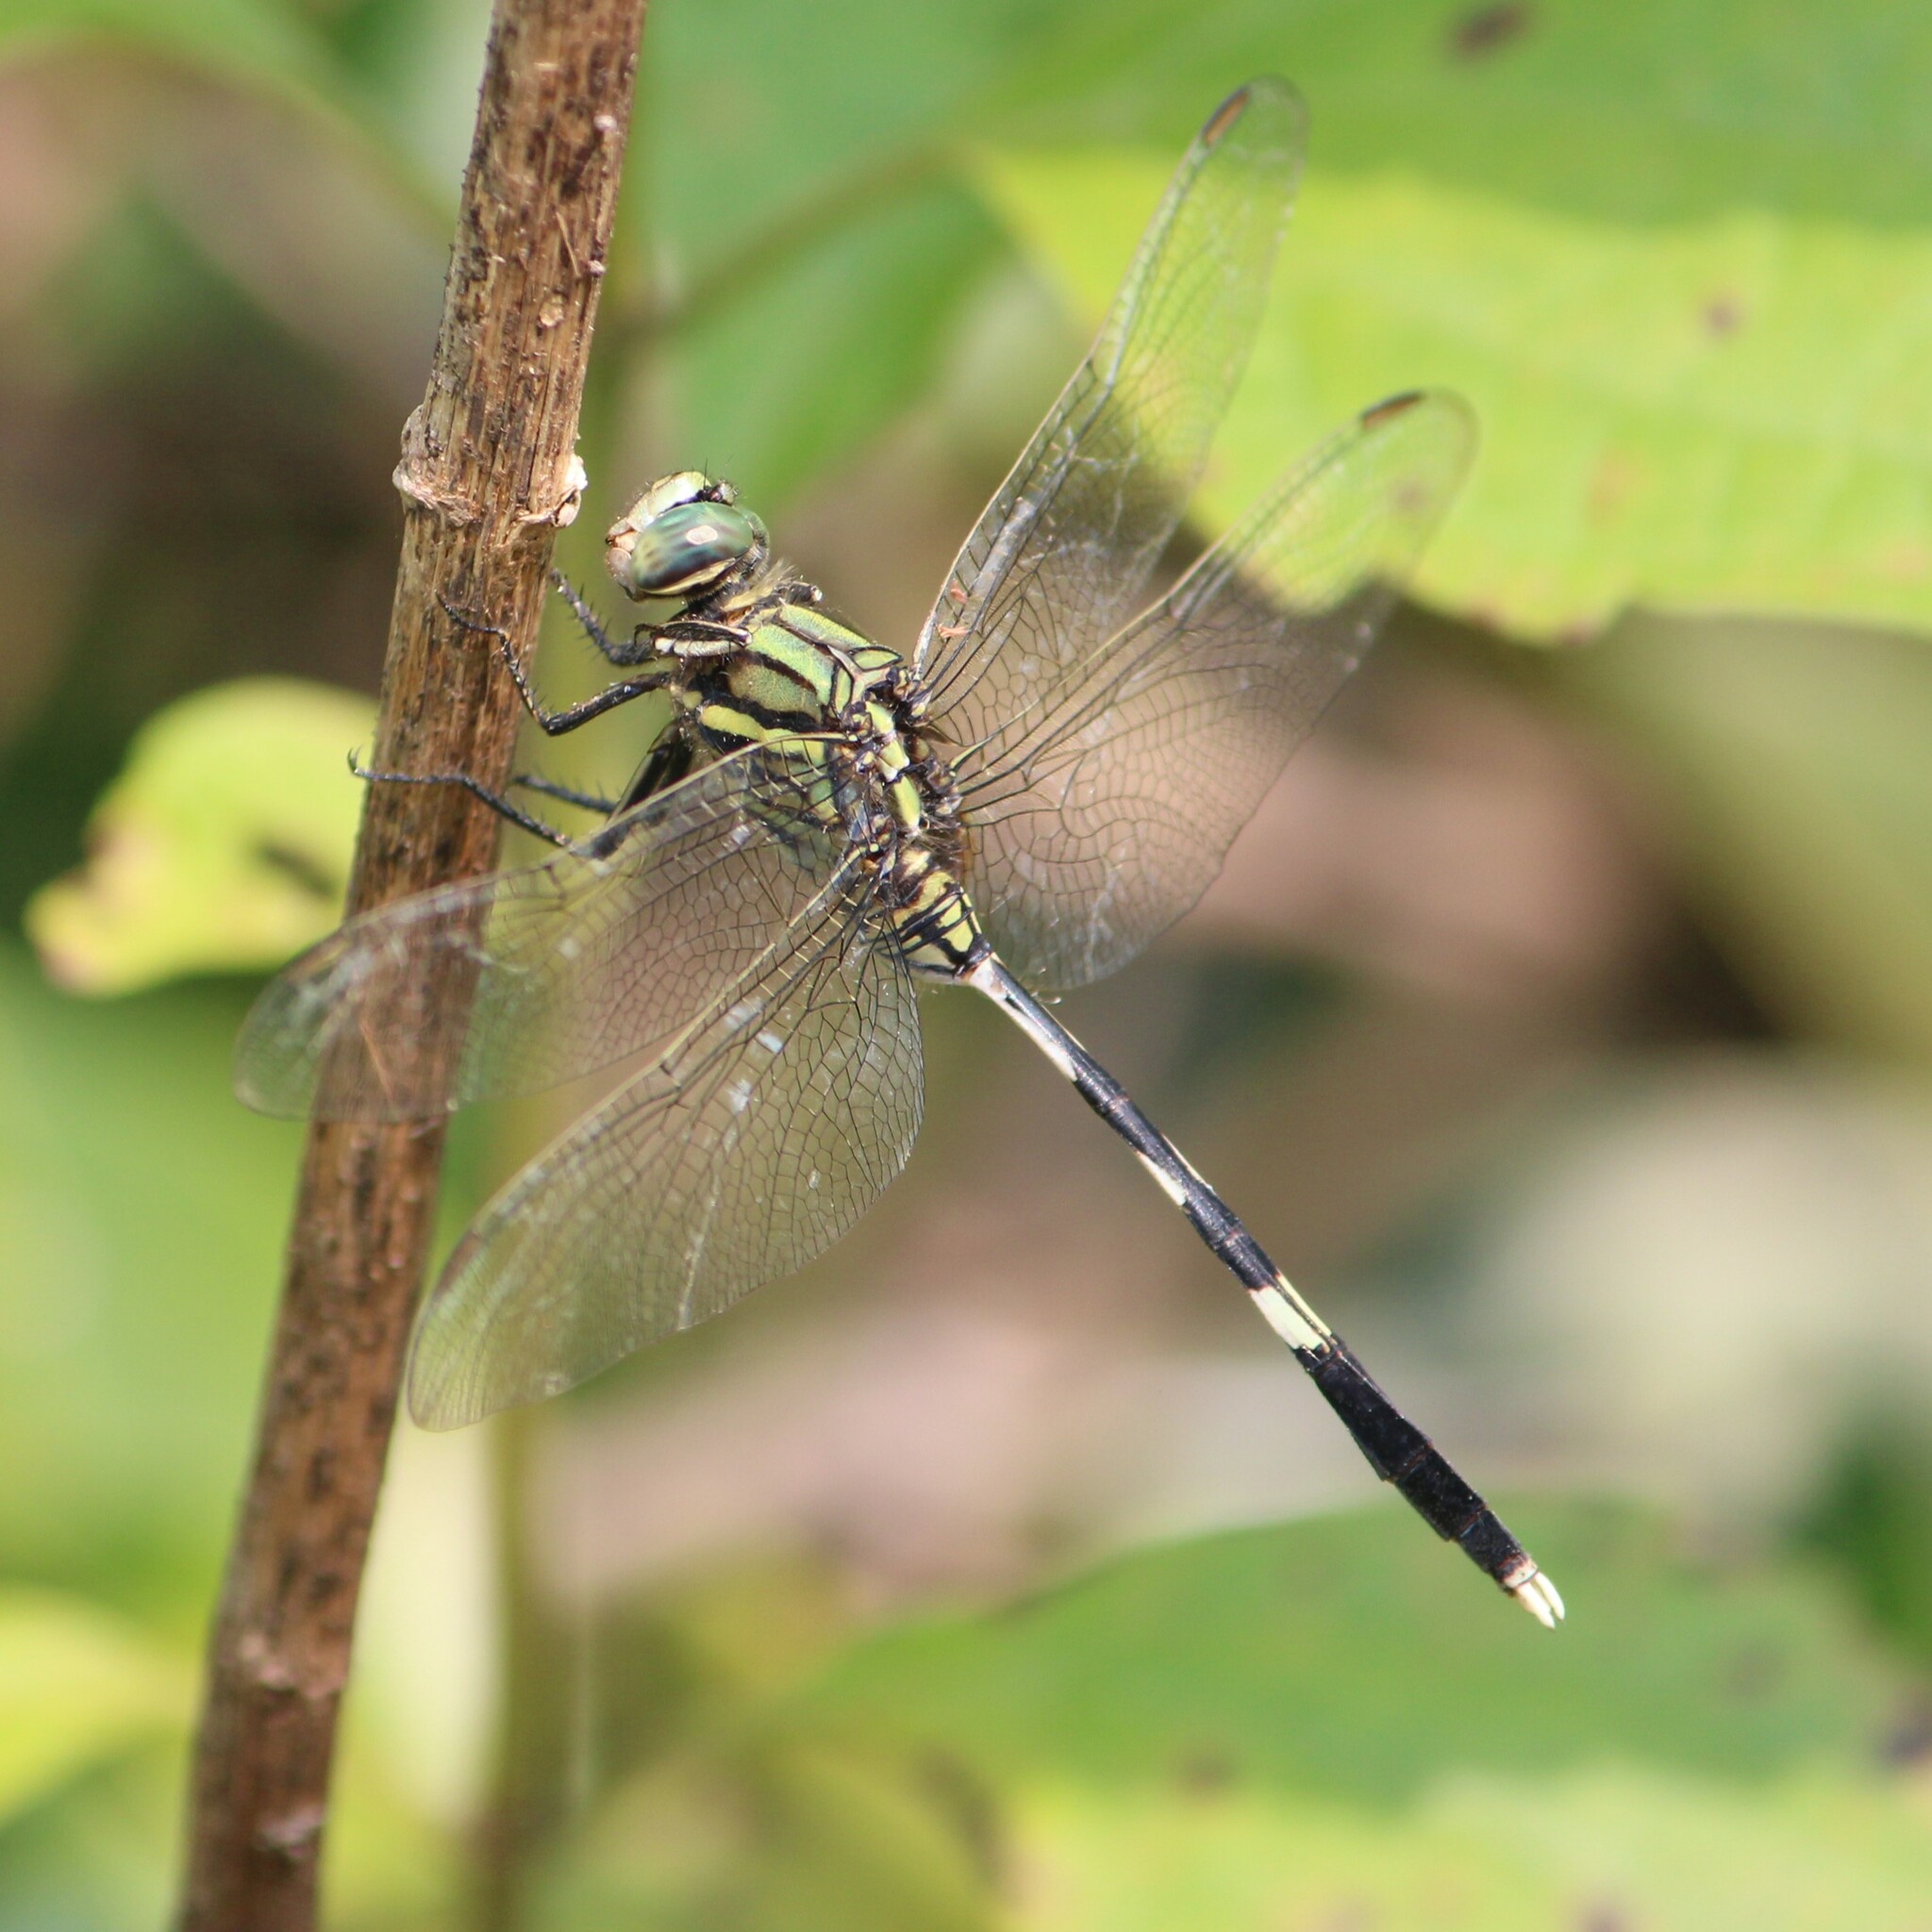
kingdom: Animalia
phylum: Arthropoda
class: Insecta
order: Odonata
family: Libellulidae
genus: Orthetrum
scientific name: Orthetrum sabina
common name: Slender skimmer
